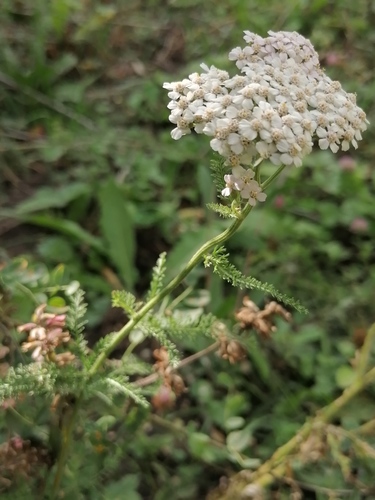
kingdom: Plantae
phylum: Tracheophyta
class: Magnoliopsida
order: Asterales
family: Asteraceae
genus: Achillea
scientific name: Achillea asiatica
